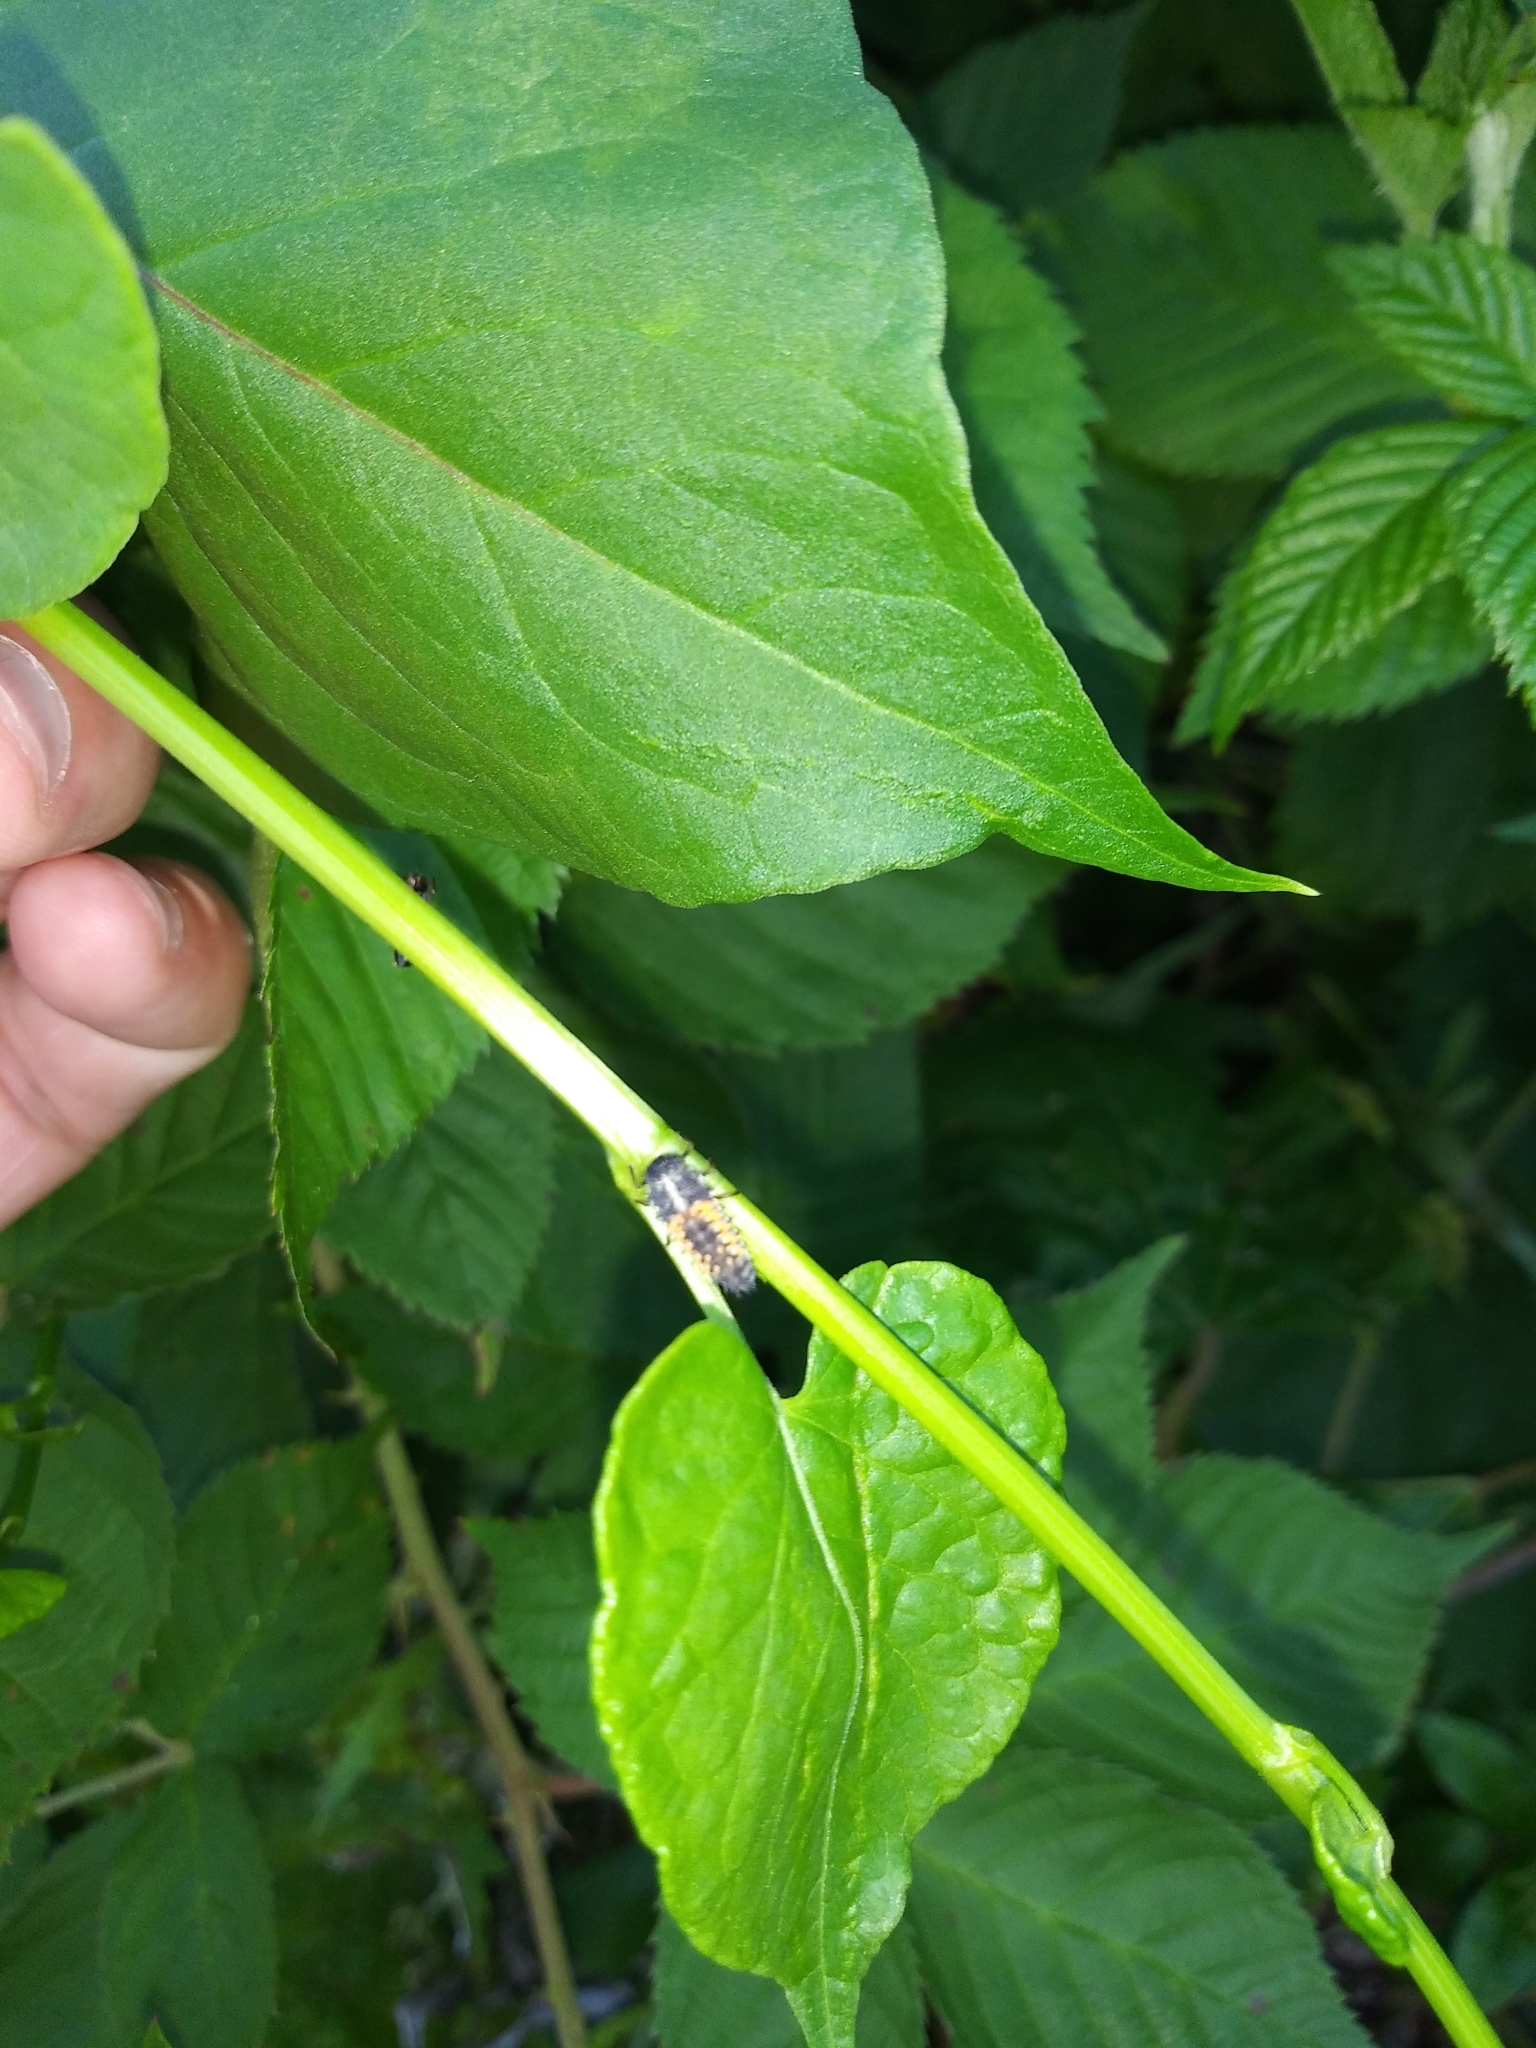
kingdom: Animalia
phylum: Arthropoda
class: Insecta
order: Coleoptera
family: Coccinellidae
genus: Harmonia
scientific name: Harmonia axyridis
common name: Harlequin ladybird
